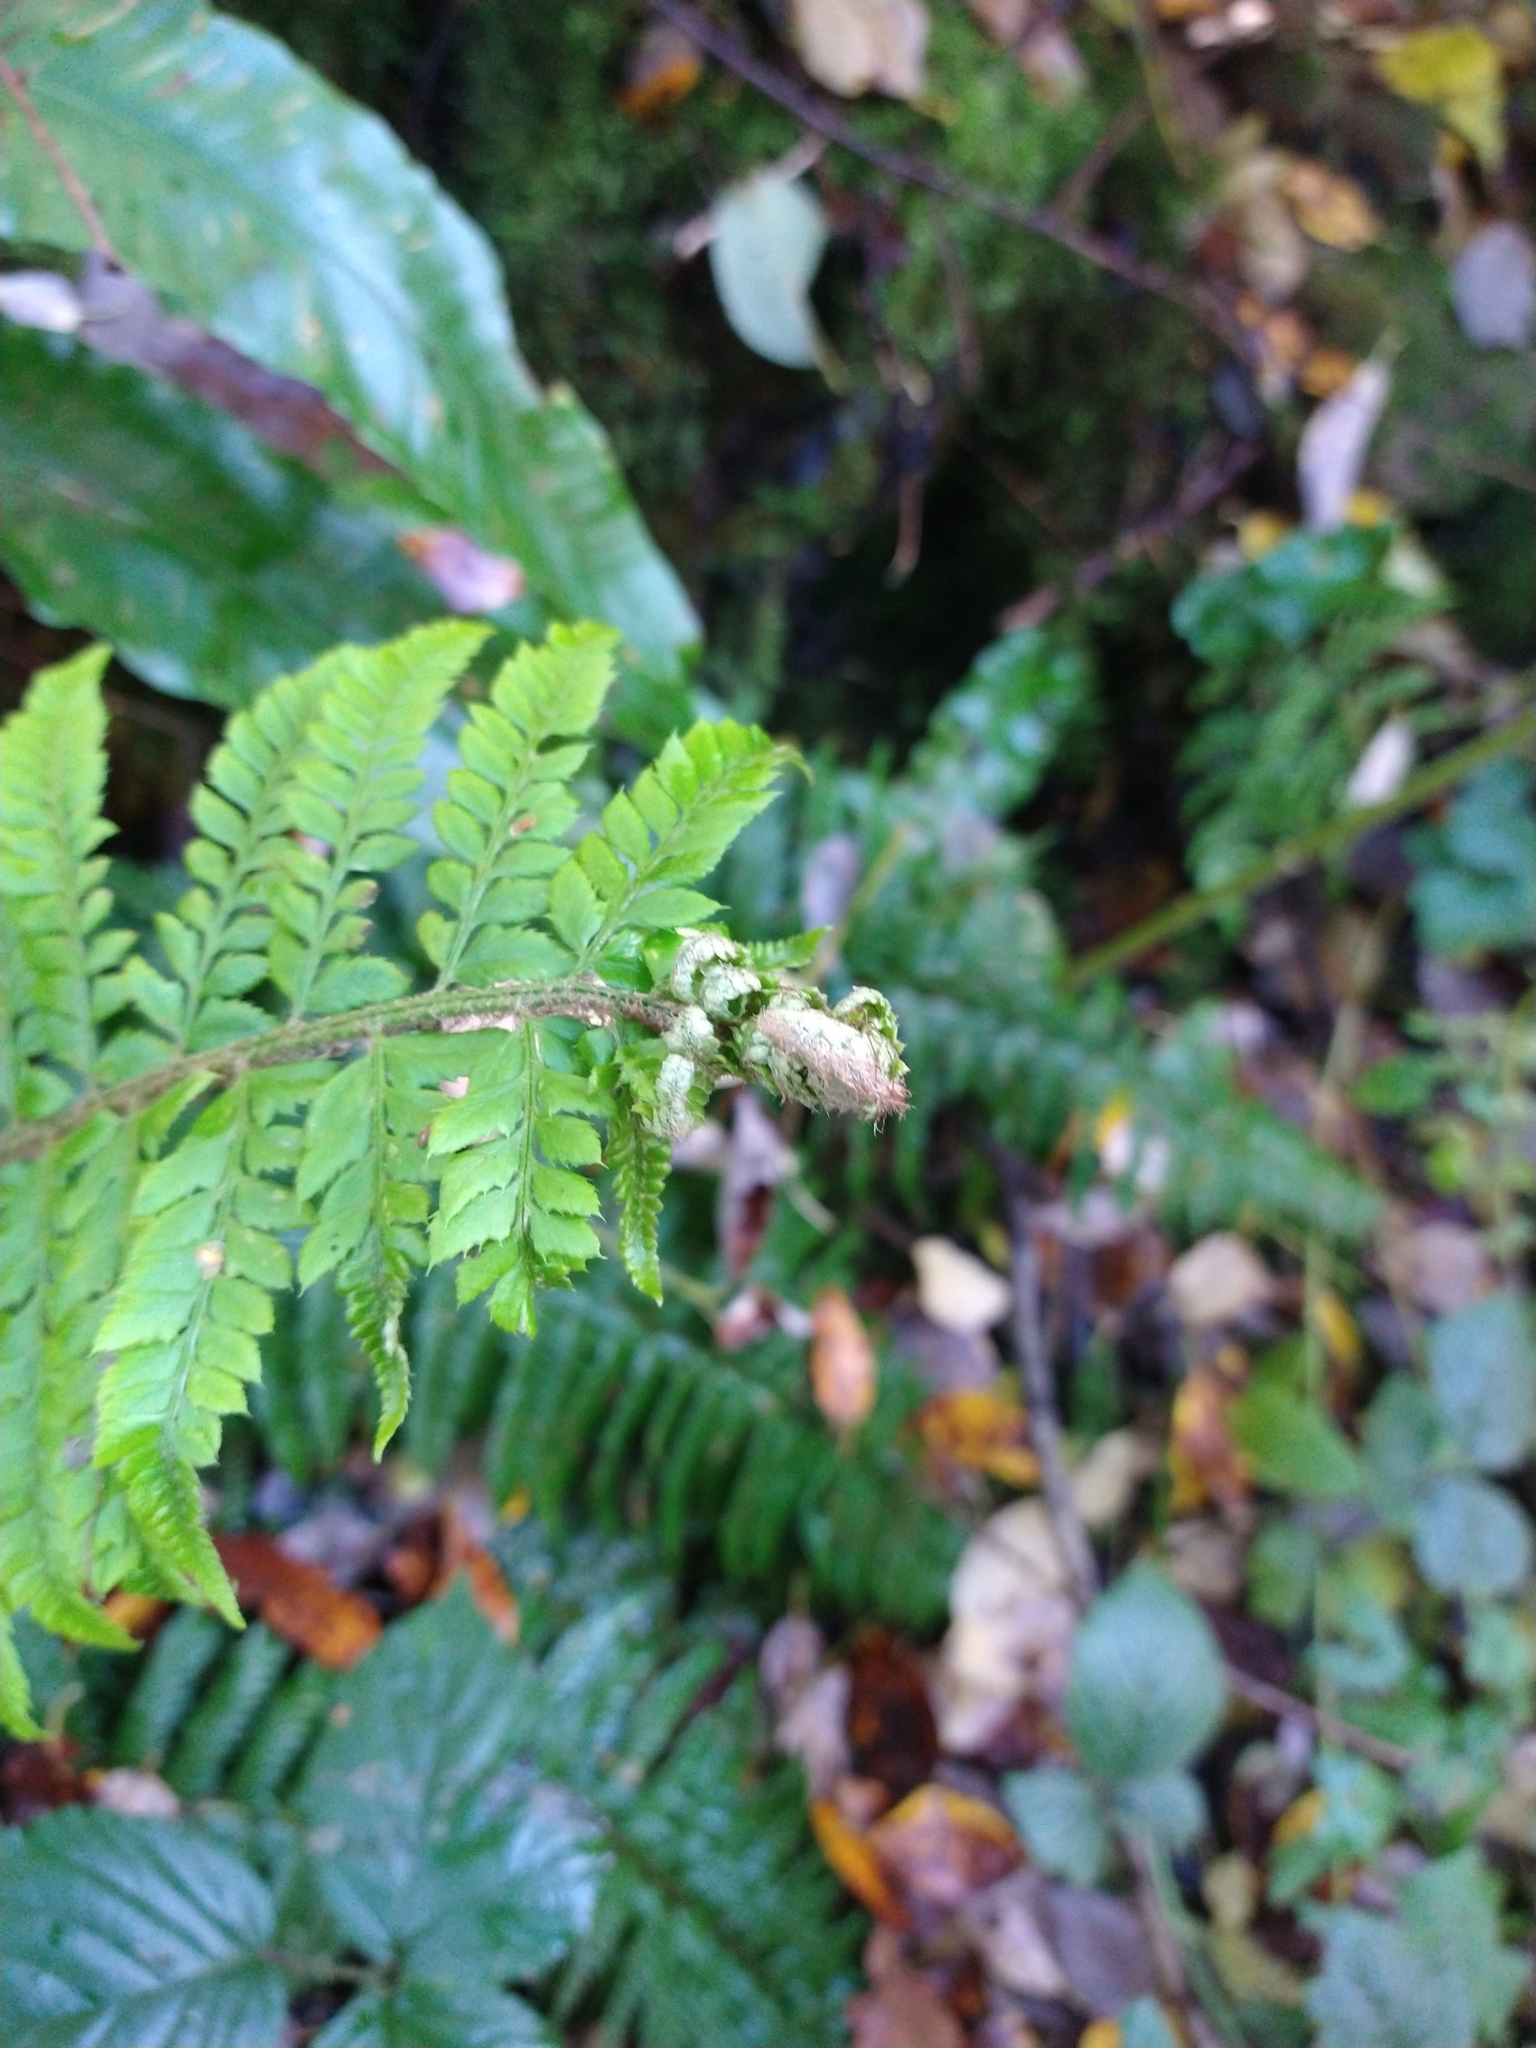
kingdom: Plantae
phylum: Tracheophyta
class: Polypodiopsida
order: Polypodiales
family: Dryopteridaceae
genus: Polystichum
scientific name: Polystichum aculeatum
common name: Hard shield-fern
